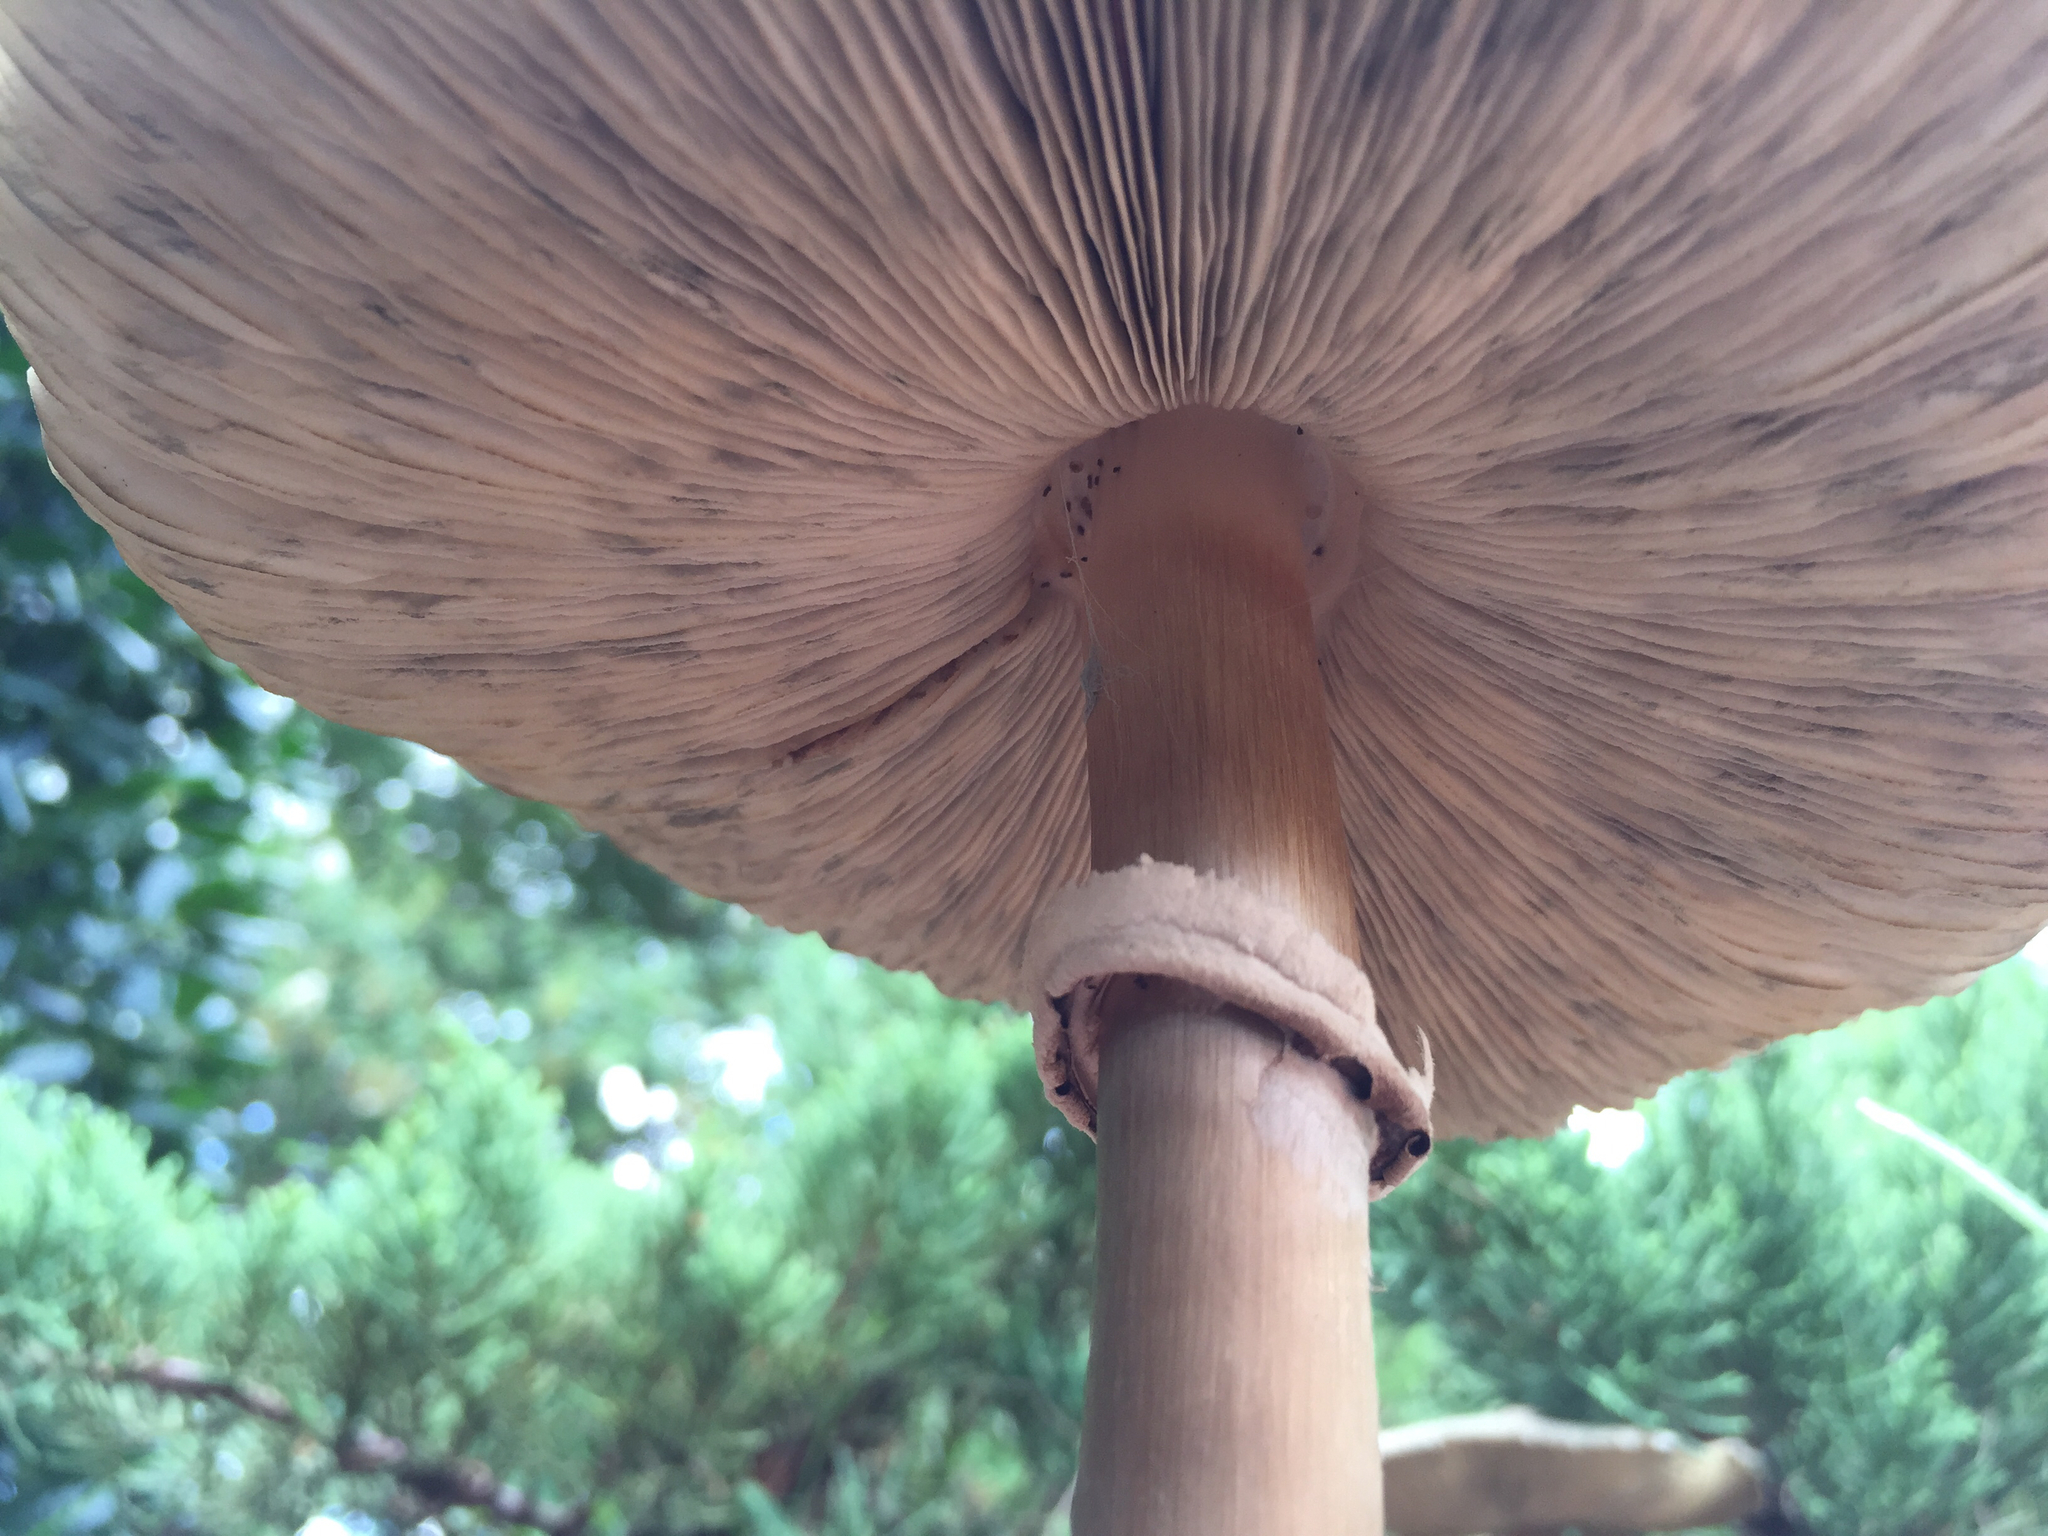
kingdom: Fungi
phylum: Basidiomycota
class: Agaricomycetes
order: Agaricales
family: Agaricaceae
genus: Chlorophyllum
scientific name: Chlorophyllum molybdites
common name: False parasol
